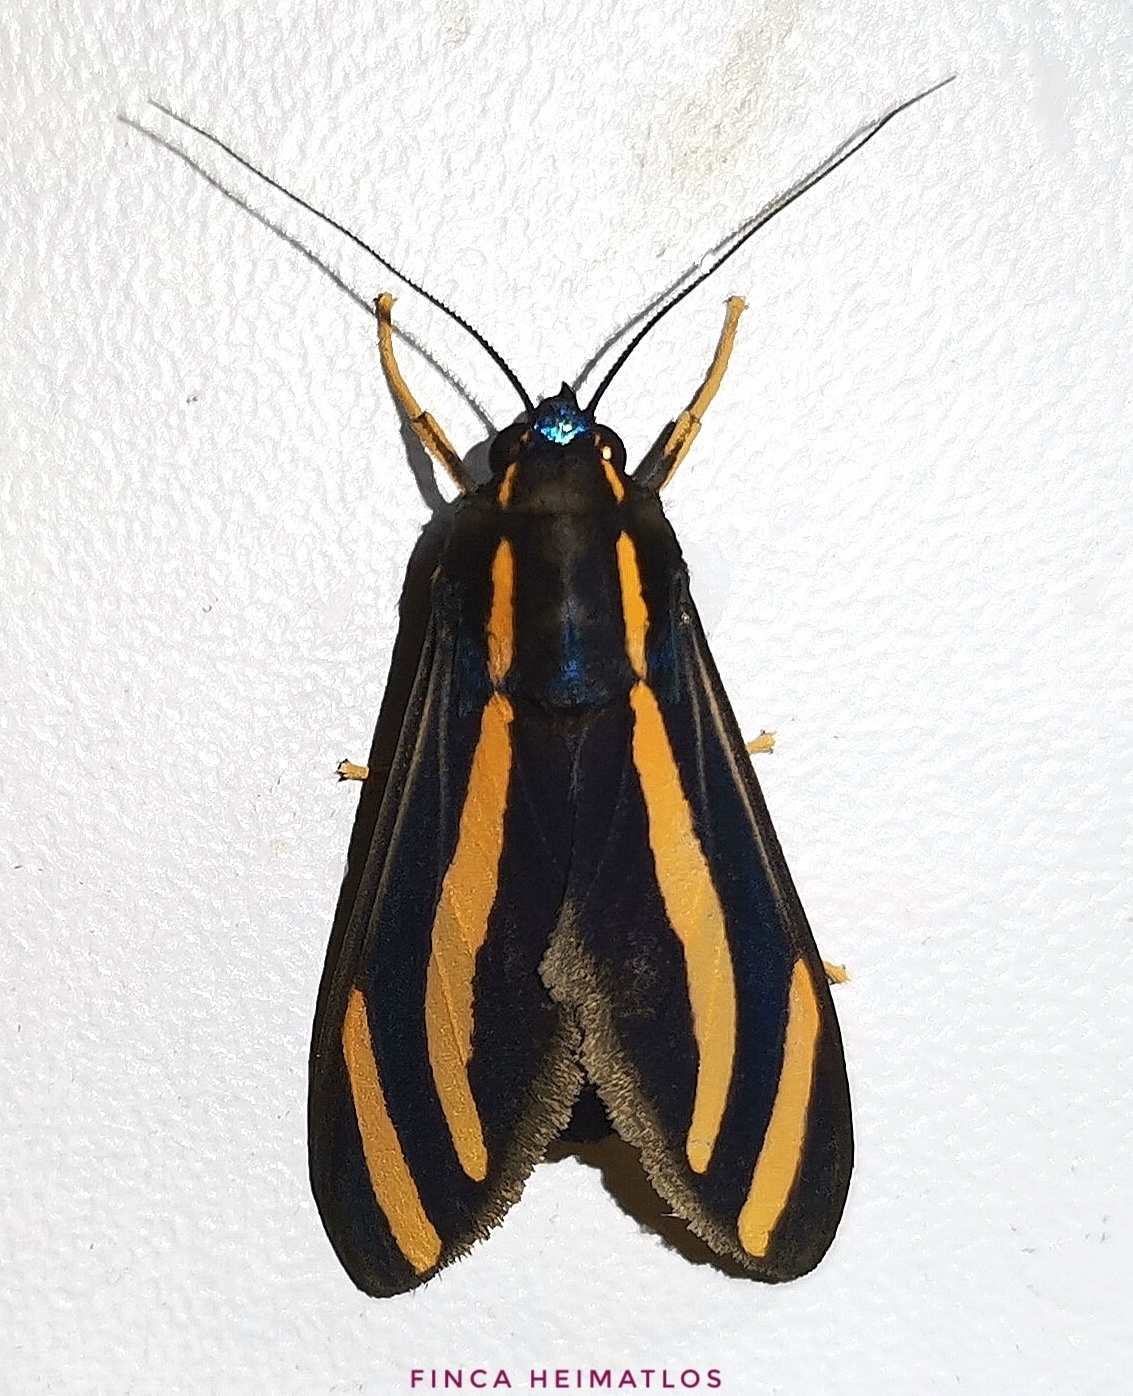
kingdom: Animalia
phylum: Arthropoda
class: Insecta
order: Lepidoptera
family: Erebidae
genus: Ormetica
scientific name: Ormetica packardi
